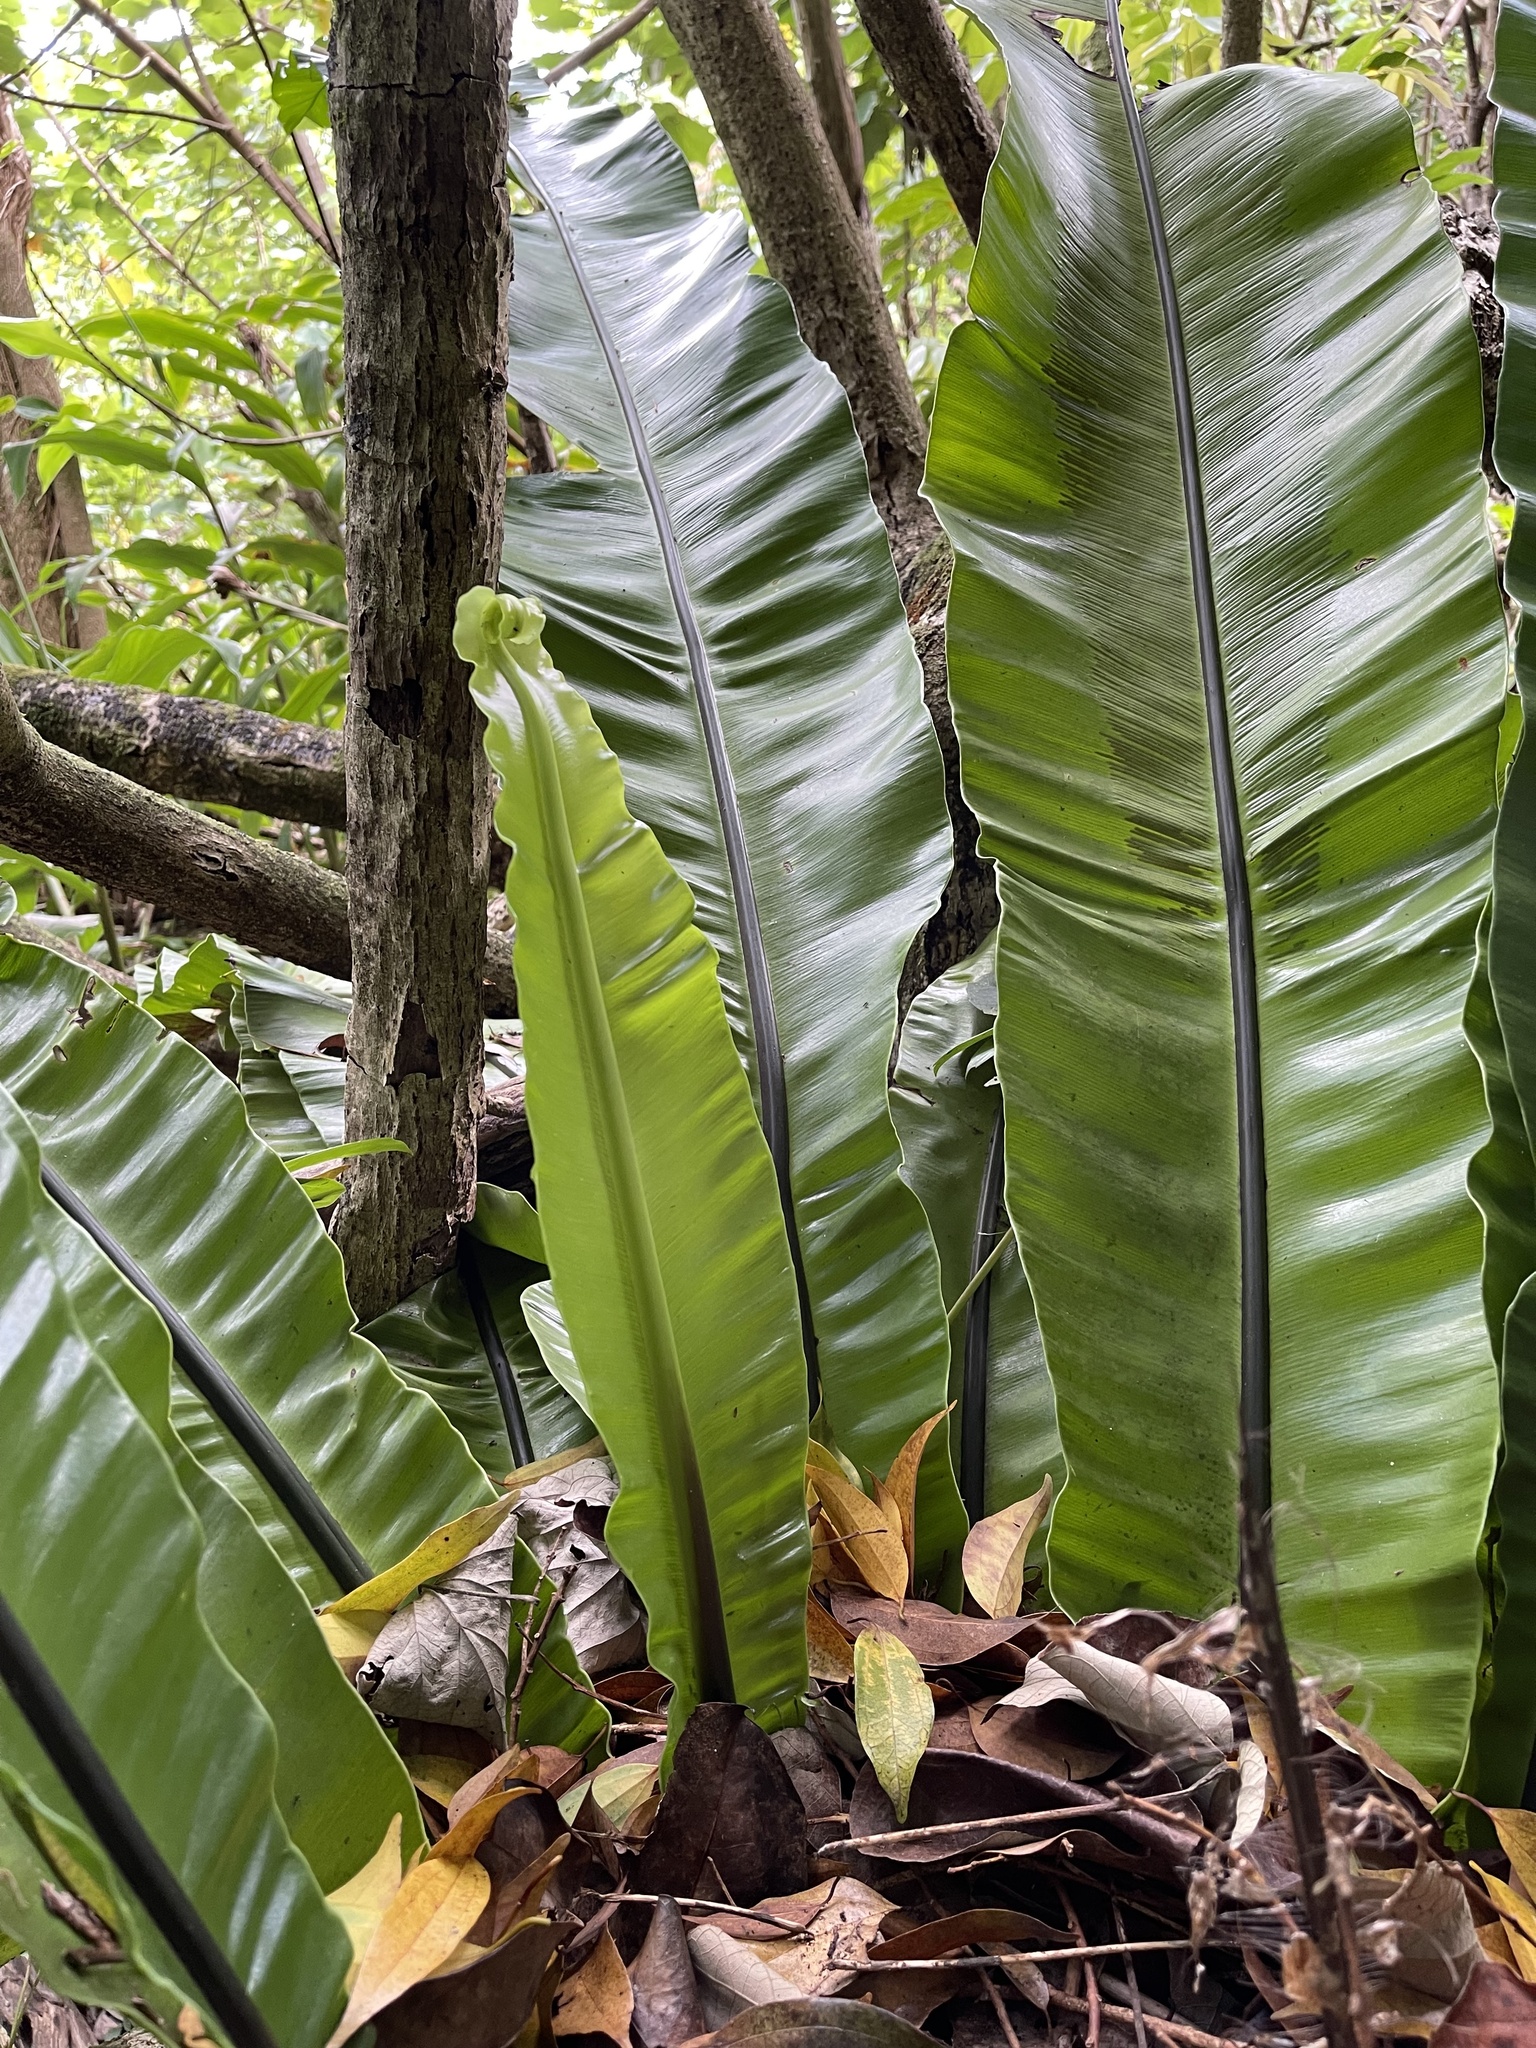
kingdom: Plantae
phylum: Tracheophyta
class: Polypodiopsida
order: Polypodiales
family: Aspleniaceae
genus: Asplenium
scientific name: Asplenium nidus
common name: Bird's-nest fern
